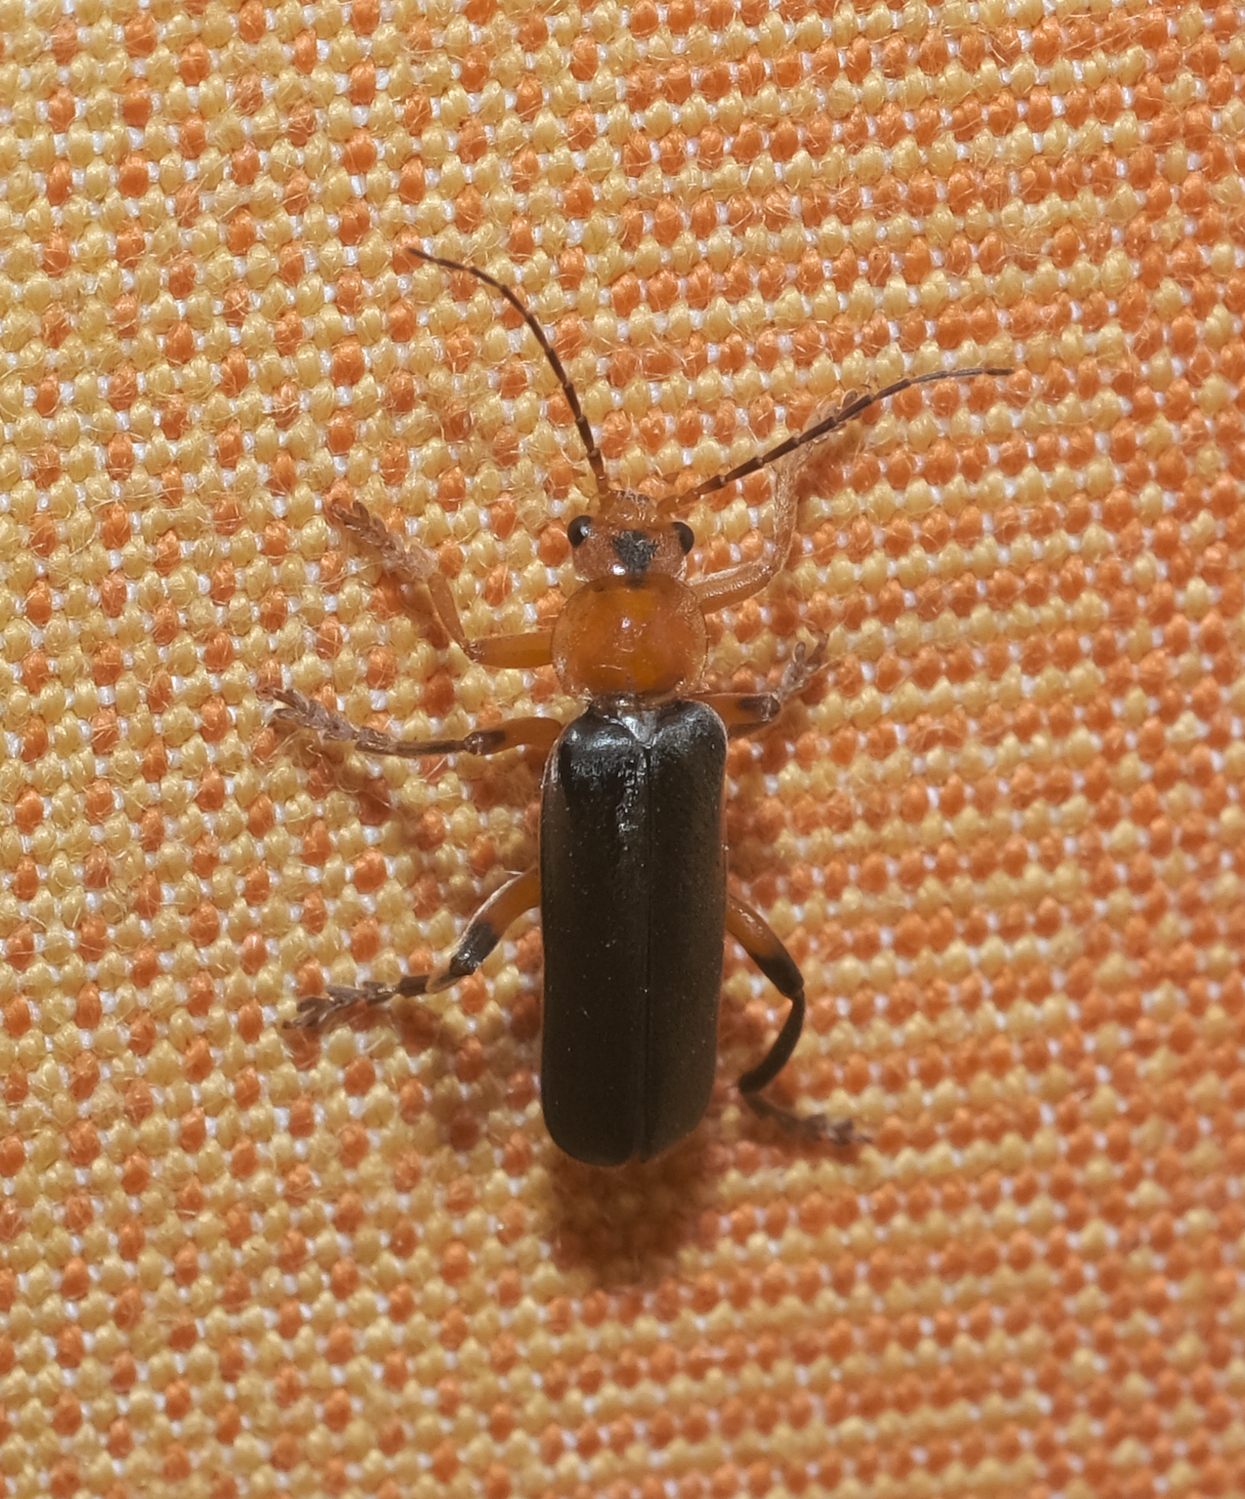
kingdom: Animalia
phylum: Arthropoda
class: Insecta
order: Coleoptera
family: Cantharidae
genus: Cantharis
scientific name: Cantharis livida
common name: Livid soldier beetle
